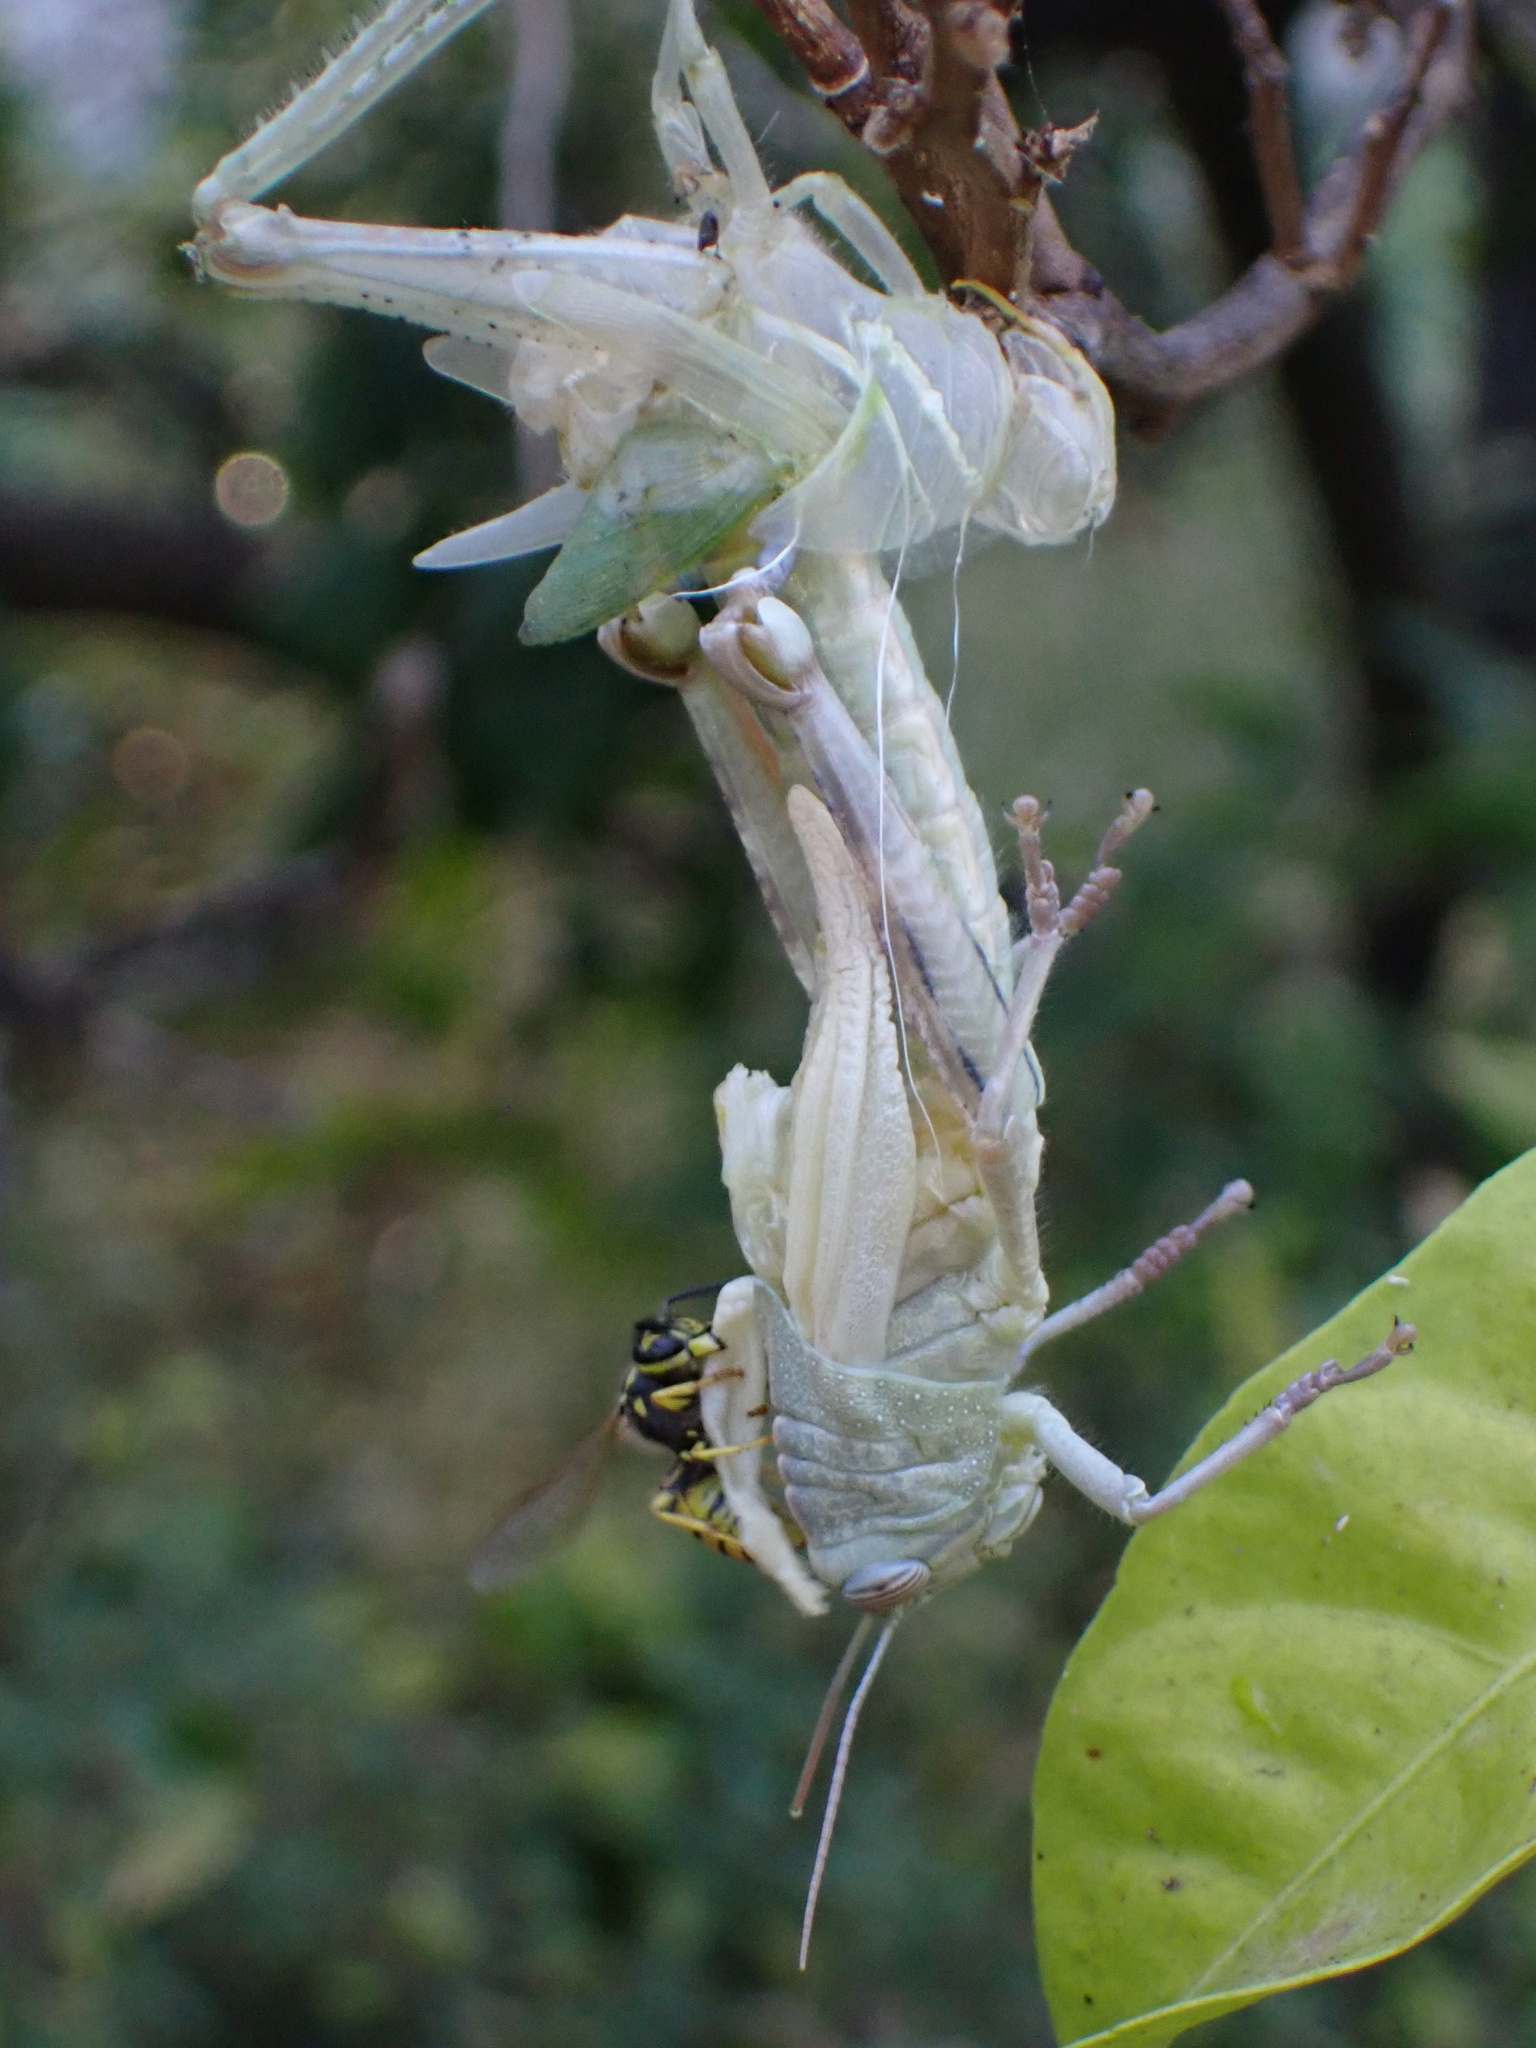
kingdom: Animalia
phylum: Arthropoda
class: Insecta
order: Orthoptera
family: Acrididae
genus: Anacridium
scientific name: Anacridium aegyptium
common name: Egyptian grasshopper
